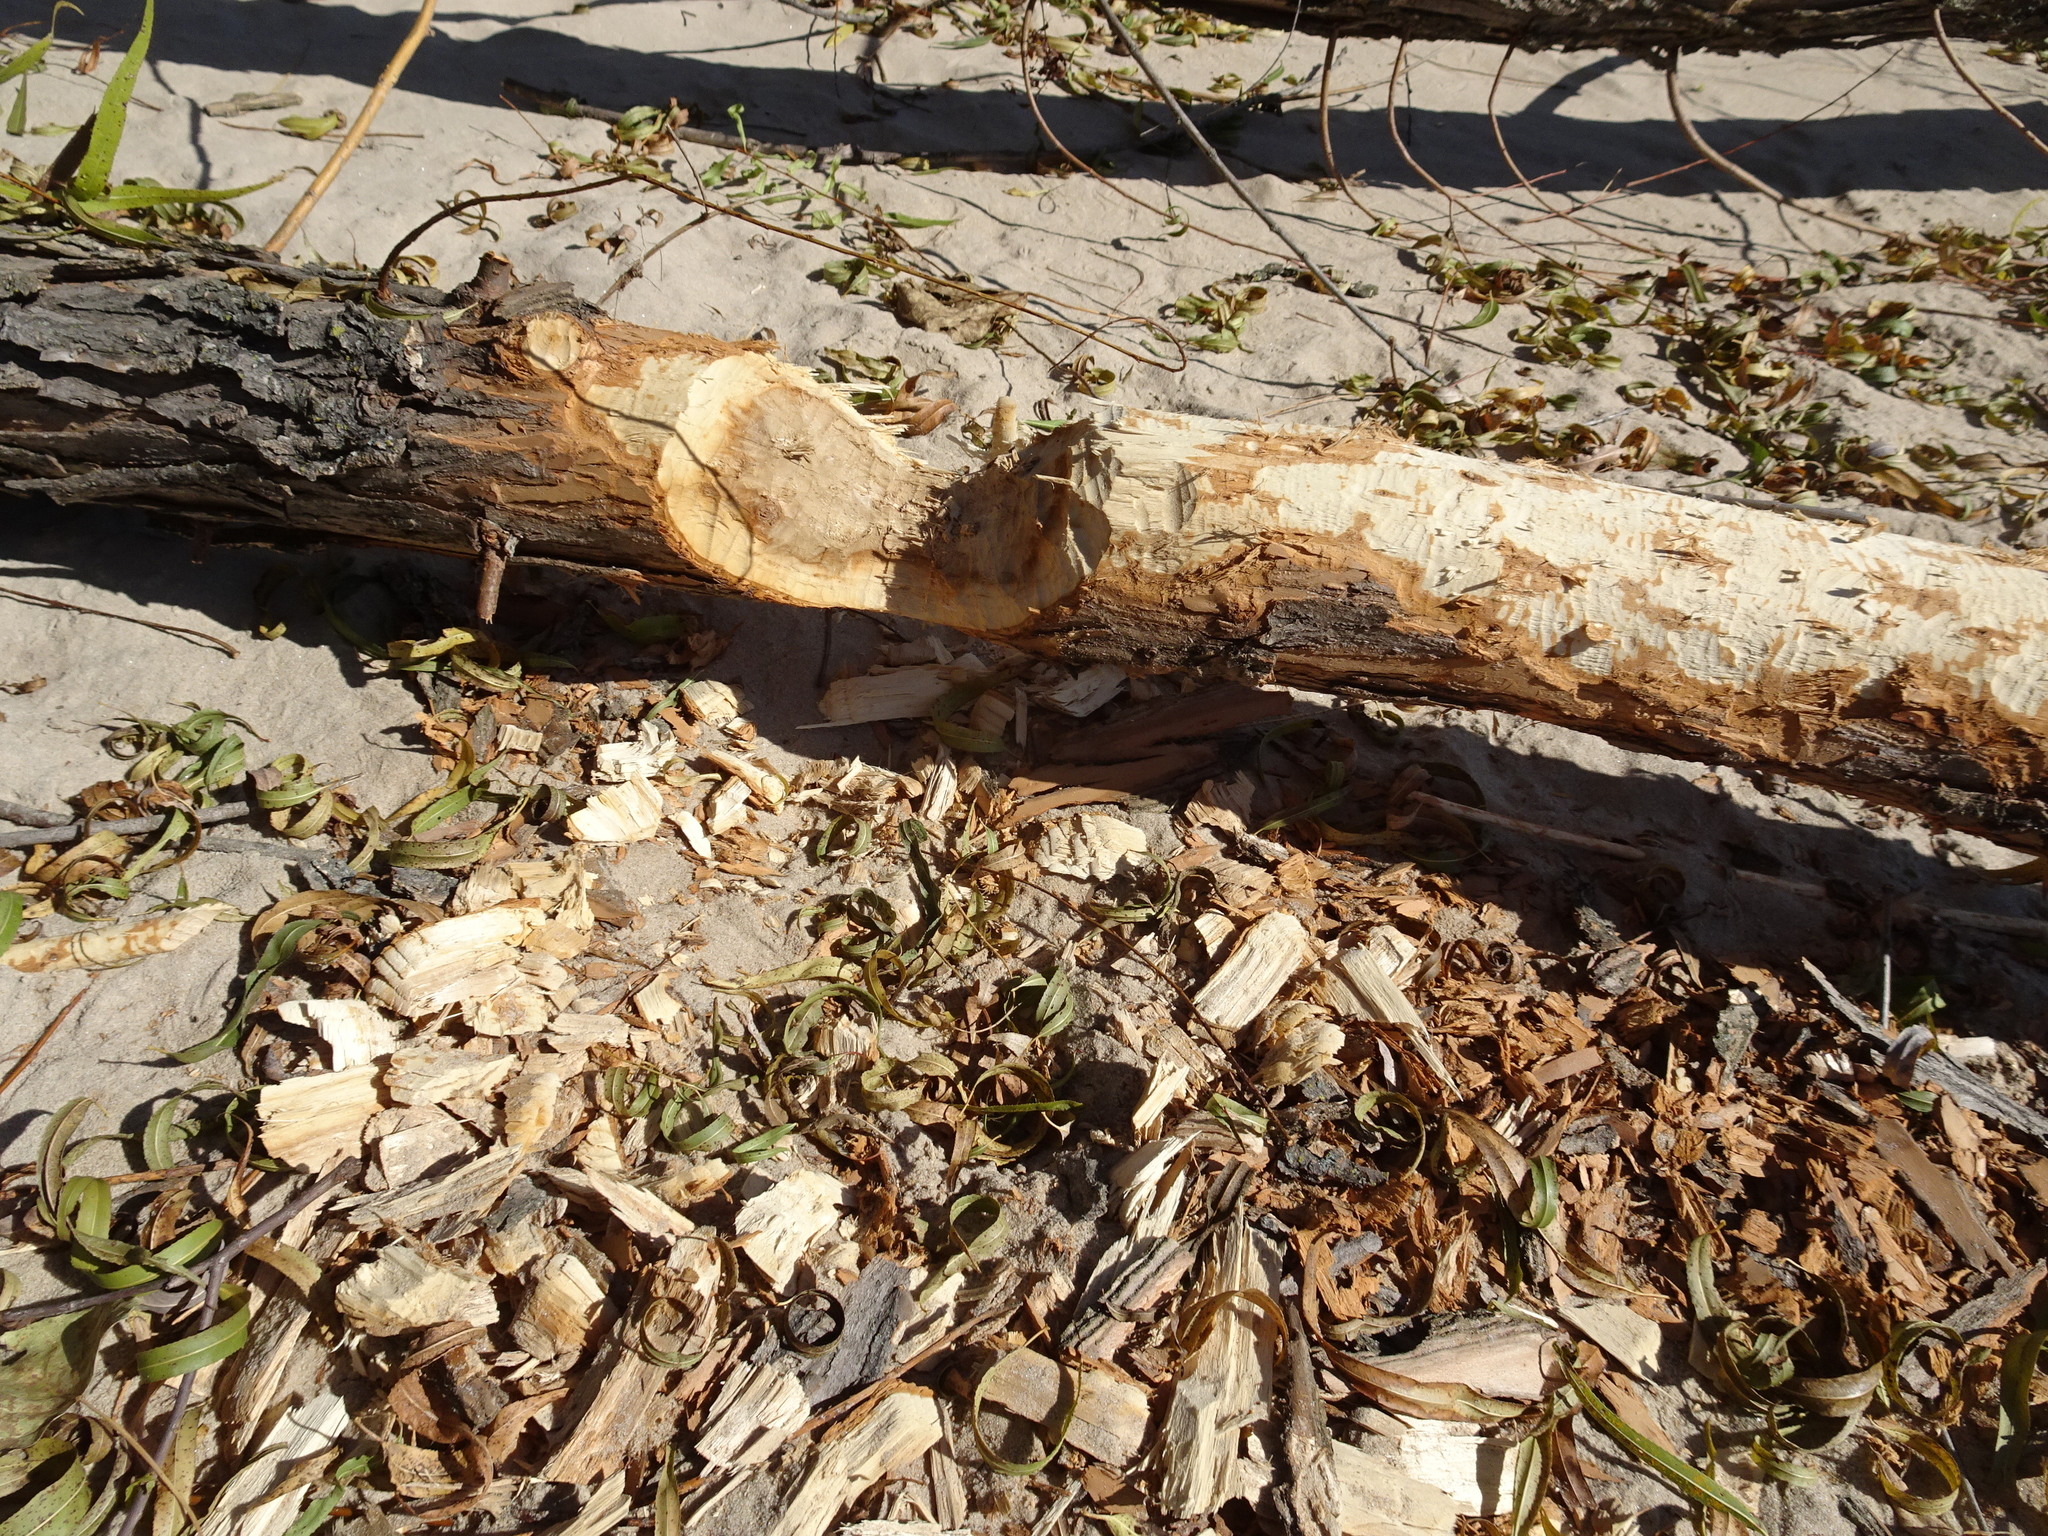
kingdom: Animalia
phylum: Chordata
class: Mammalia
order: Rodentia
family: Castoridae
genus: Castor
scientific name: Castor canadensis
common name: American beaver
